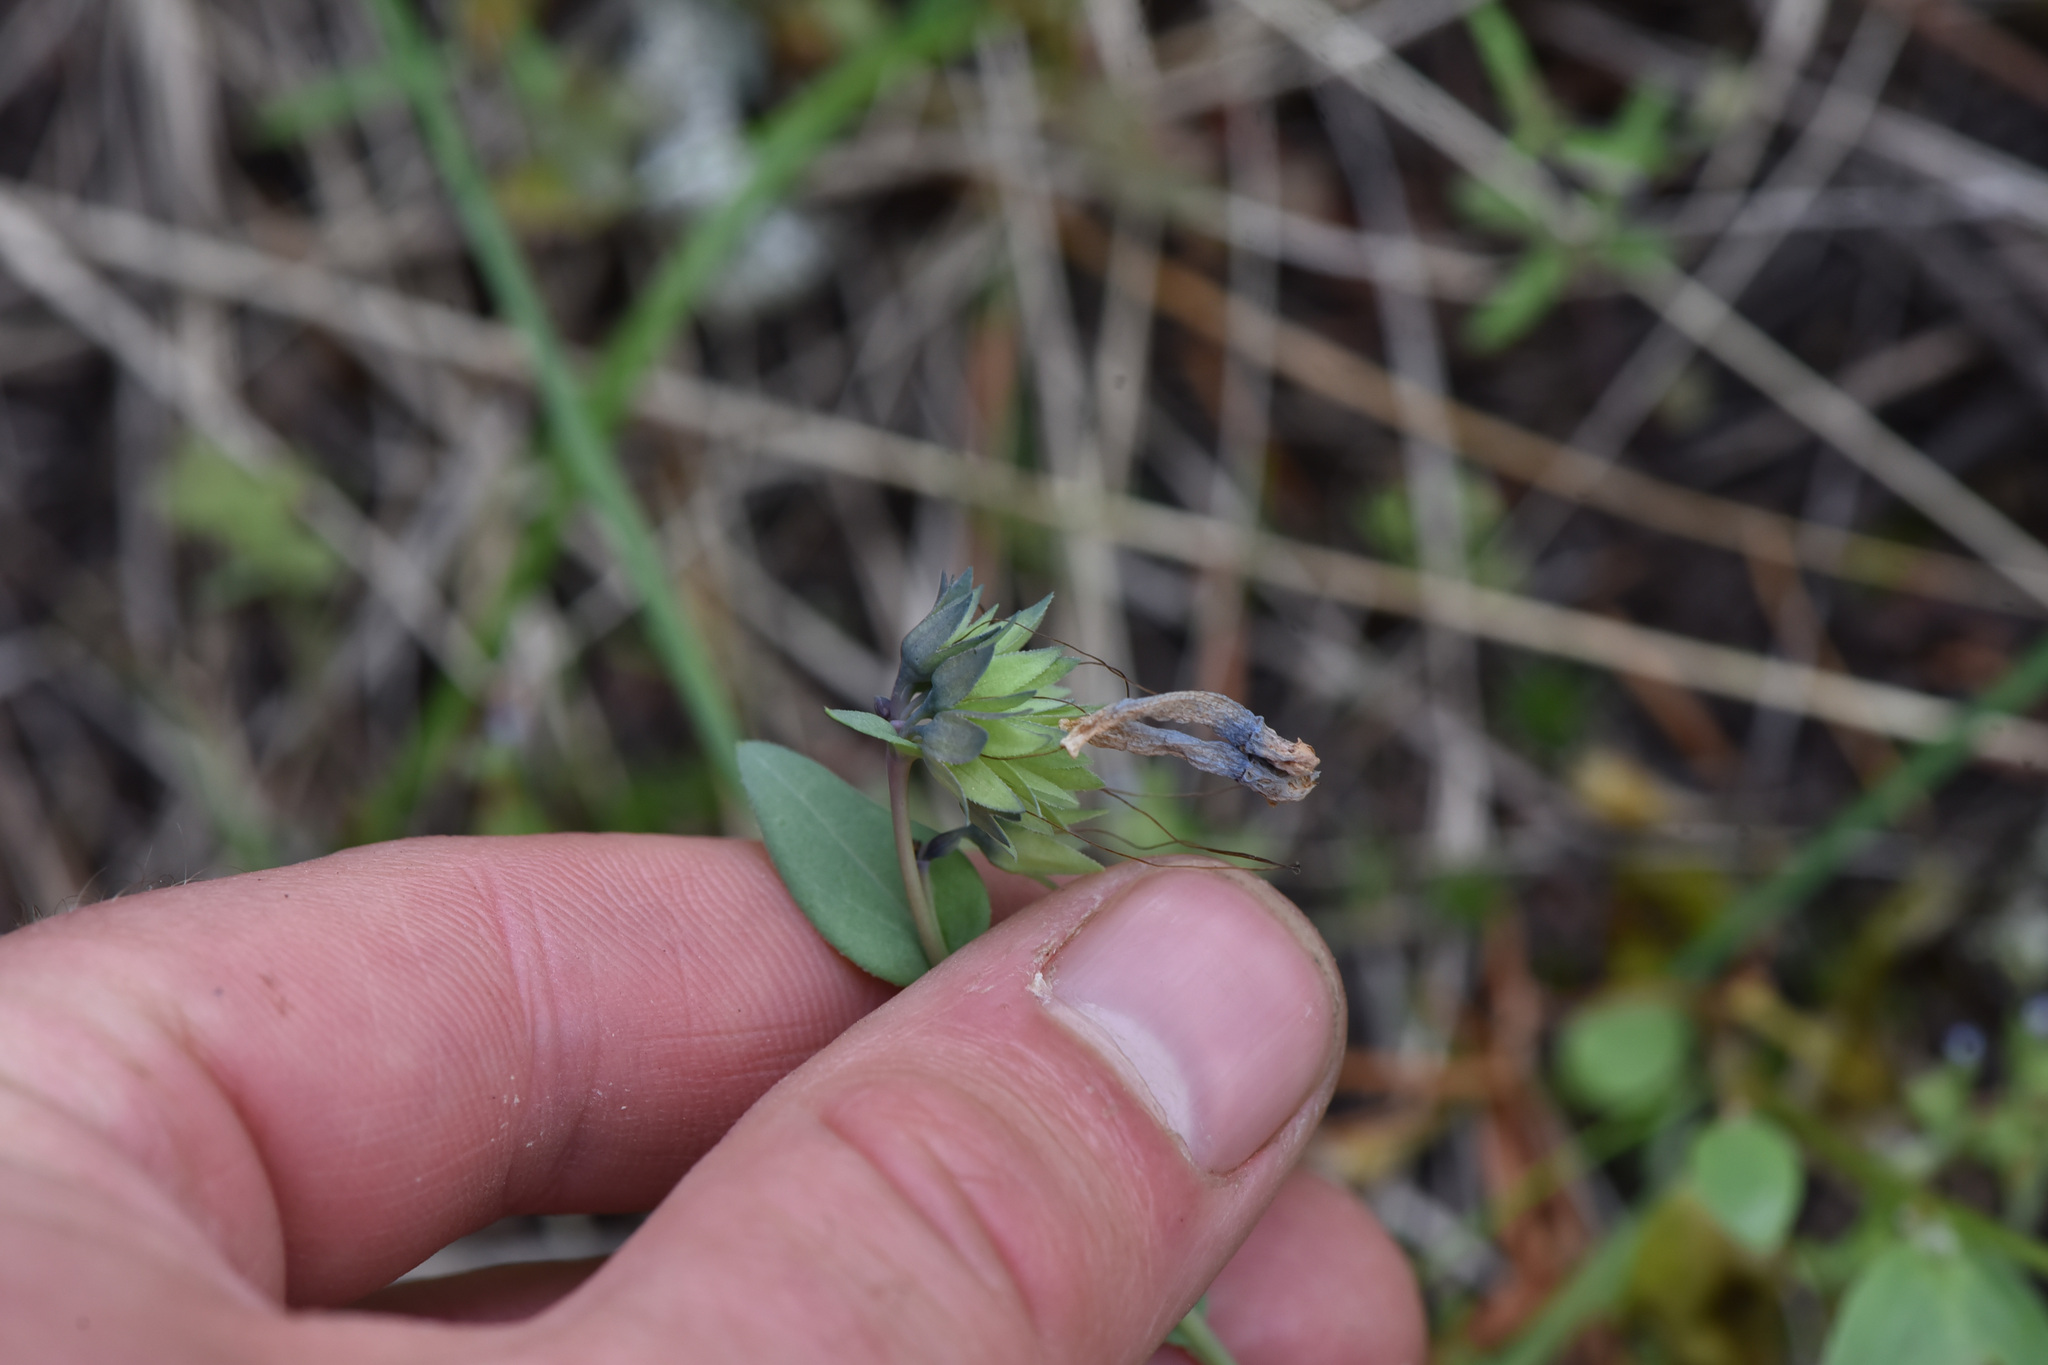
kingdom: Plantae
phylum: Tracheophyta
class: Magnoliopsida
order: Boraginales
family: Boraginaceae
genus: Mertensia
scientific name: Mertensia longiflora
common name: Large-flowered bluebells
